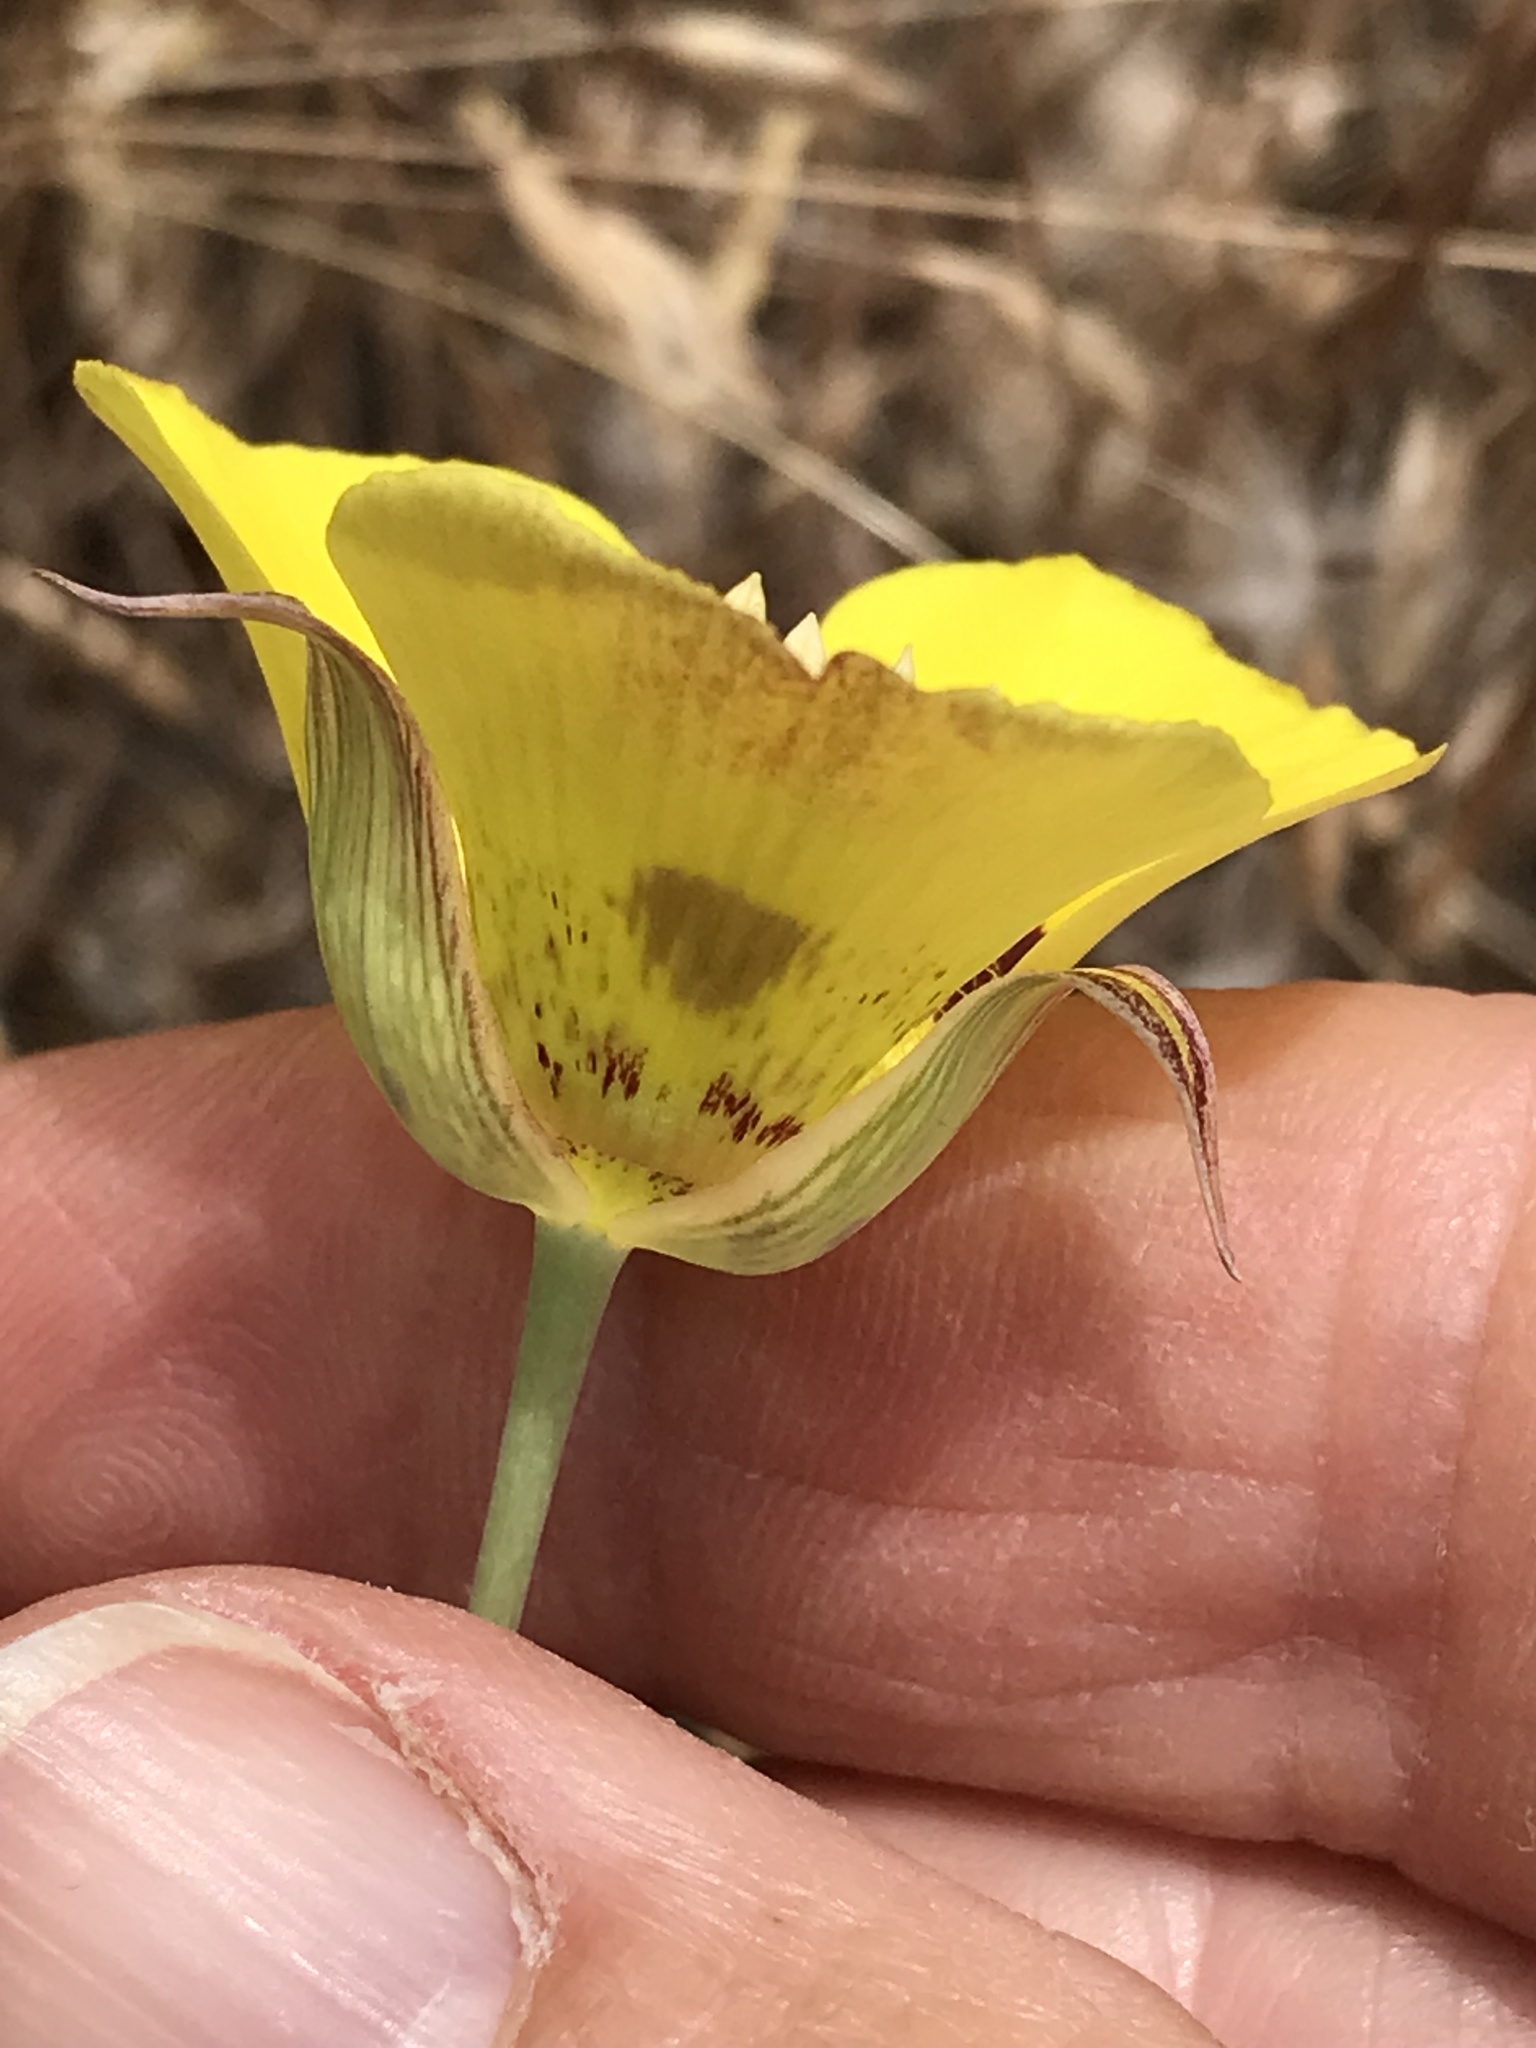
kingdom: Plantae
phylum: Tracheophyta
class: Liliopsida
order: Liliales
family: Liliaceae
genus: Calochortus
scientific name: Calochortus luteus
